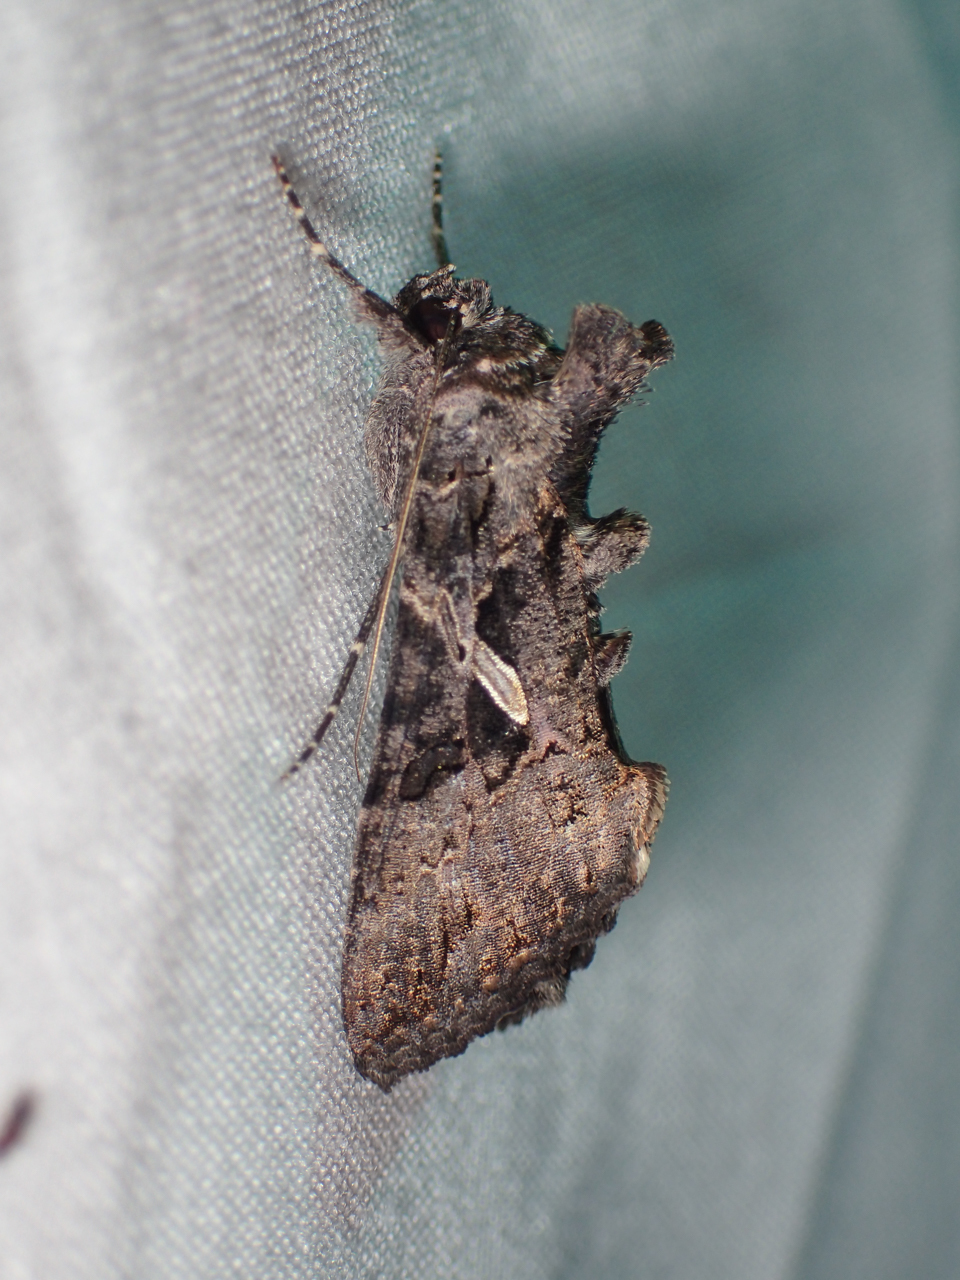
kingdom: Animalia
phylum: Arthropoda
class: Insecta
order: Lepidoptera
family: Noctuidae
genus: Ctenoplusia
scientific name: Ctenoplusia oxygramma
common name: Sharp-stigma looper moth
